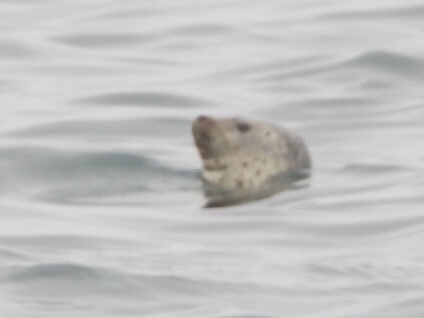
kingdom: Animalia
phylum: Chordata
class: Mammalia
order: Carnivora
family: Phocidae
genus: Phoca
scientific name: Phoca largha
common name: Spotted seal
